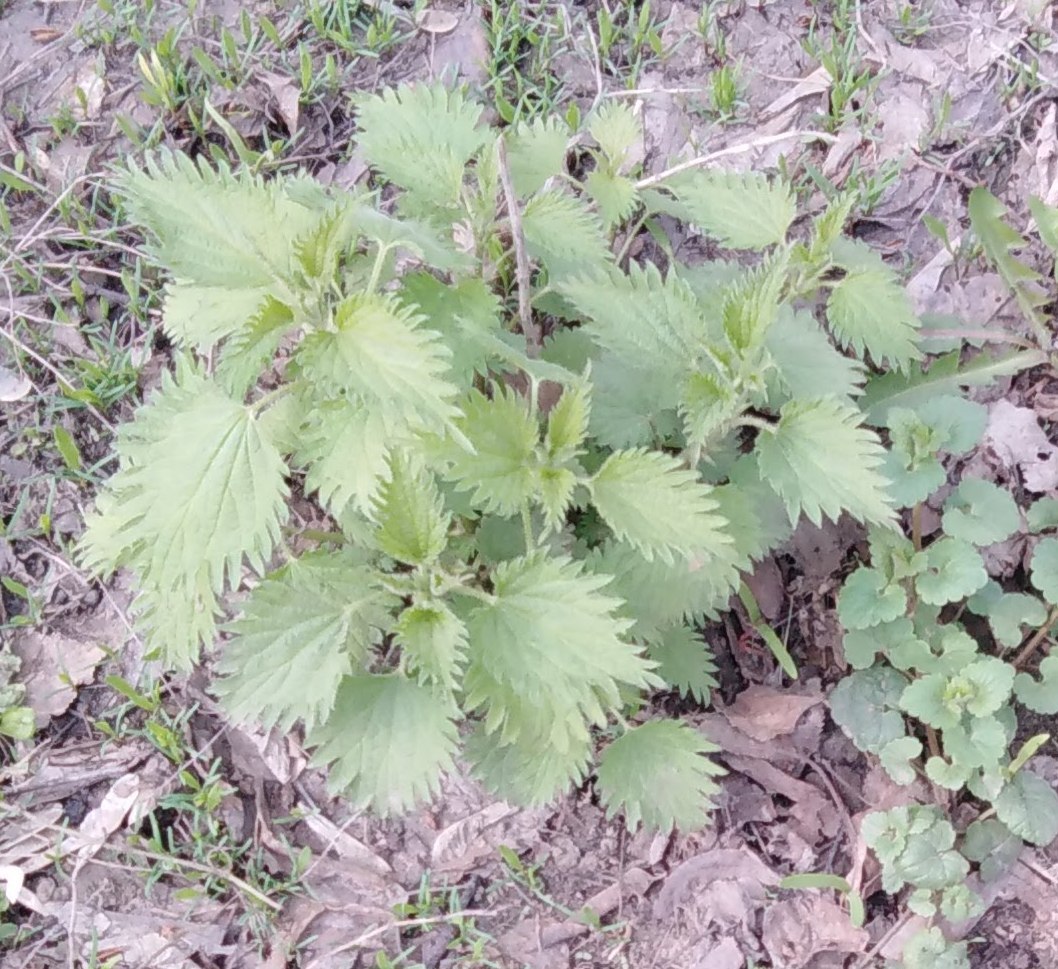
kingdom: Plantae
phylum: Tracheophyta
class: Magnoliopsida
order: Rosales
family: Urticaceae
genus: Urtica
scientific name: Urtica dioica
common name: Common nettle
